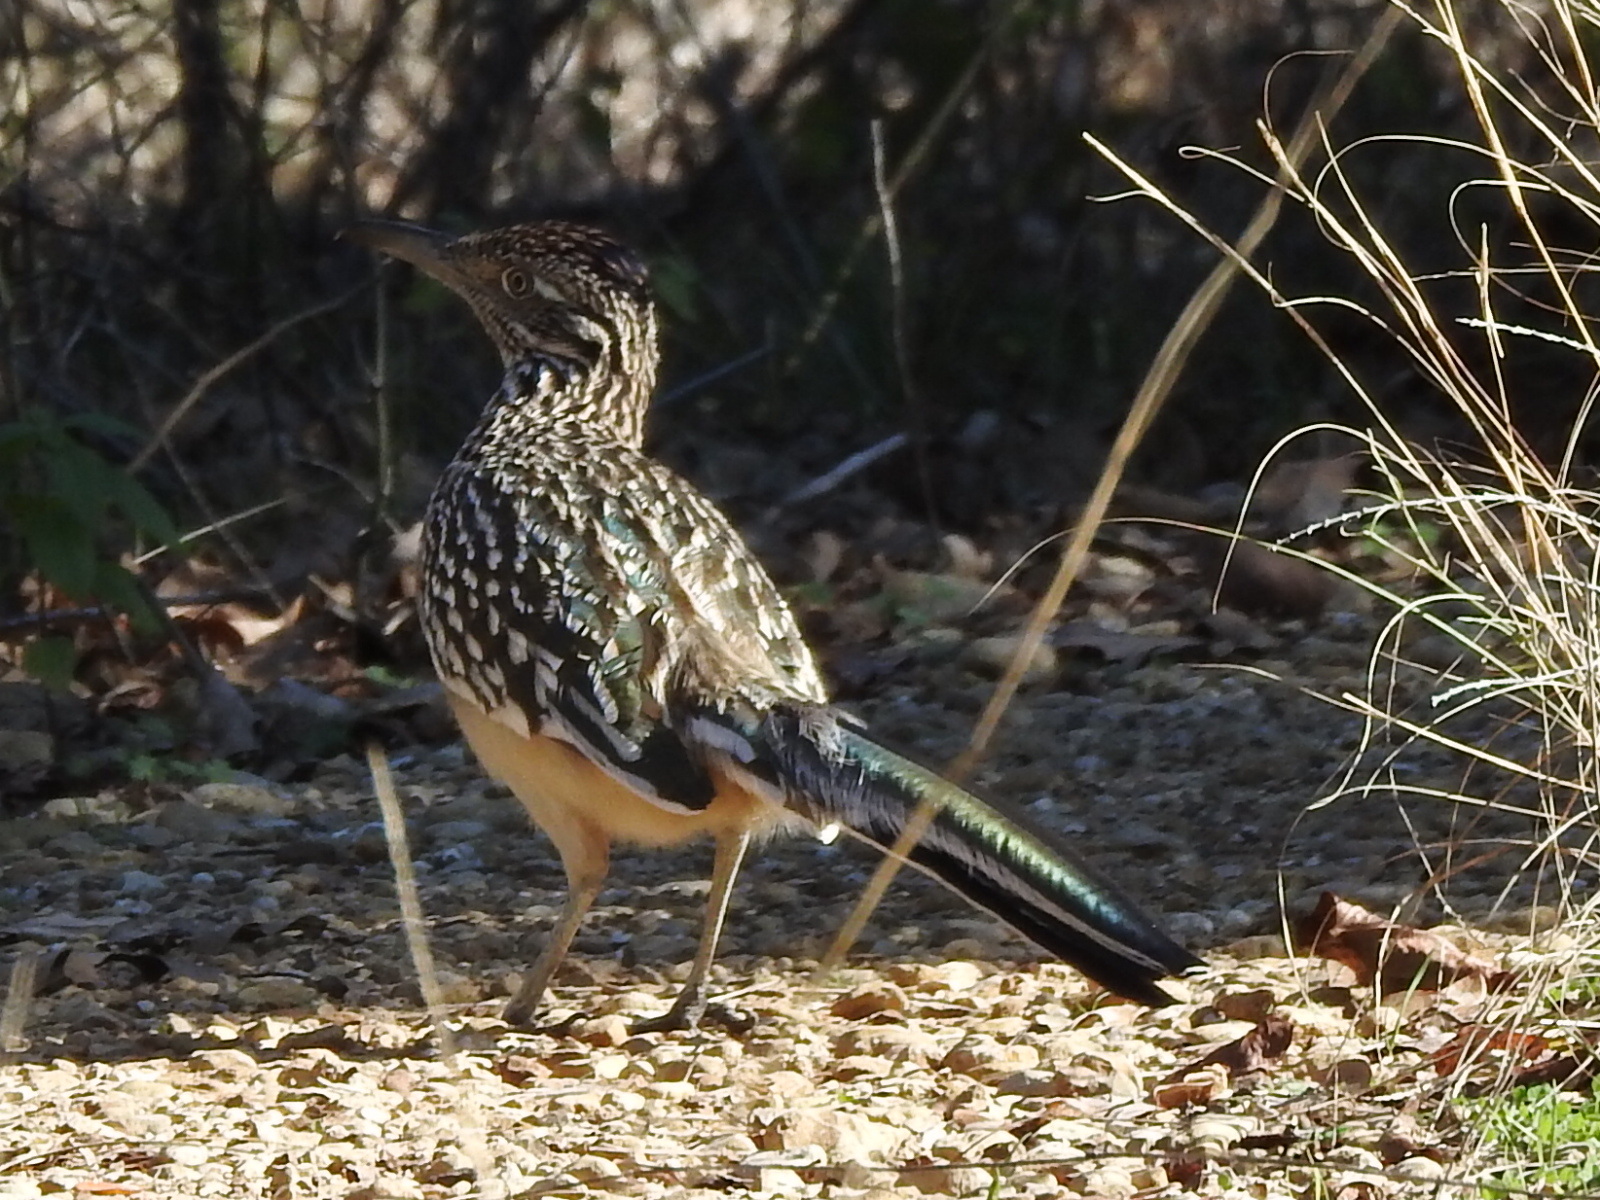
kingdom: Animalia
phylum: Chordata
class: Aves
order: Cuculiformes
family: Cuculidae
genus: Geococcyx
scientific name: Geococcyx californianus
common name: Greater roadrunner
